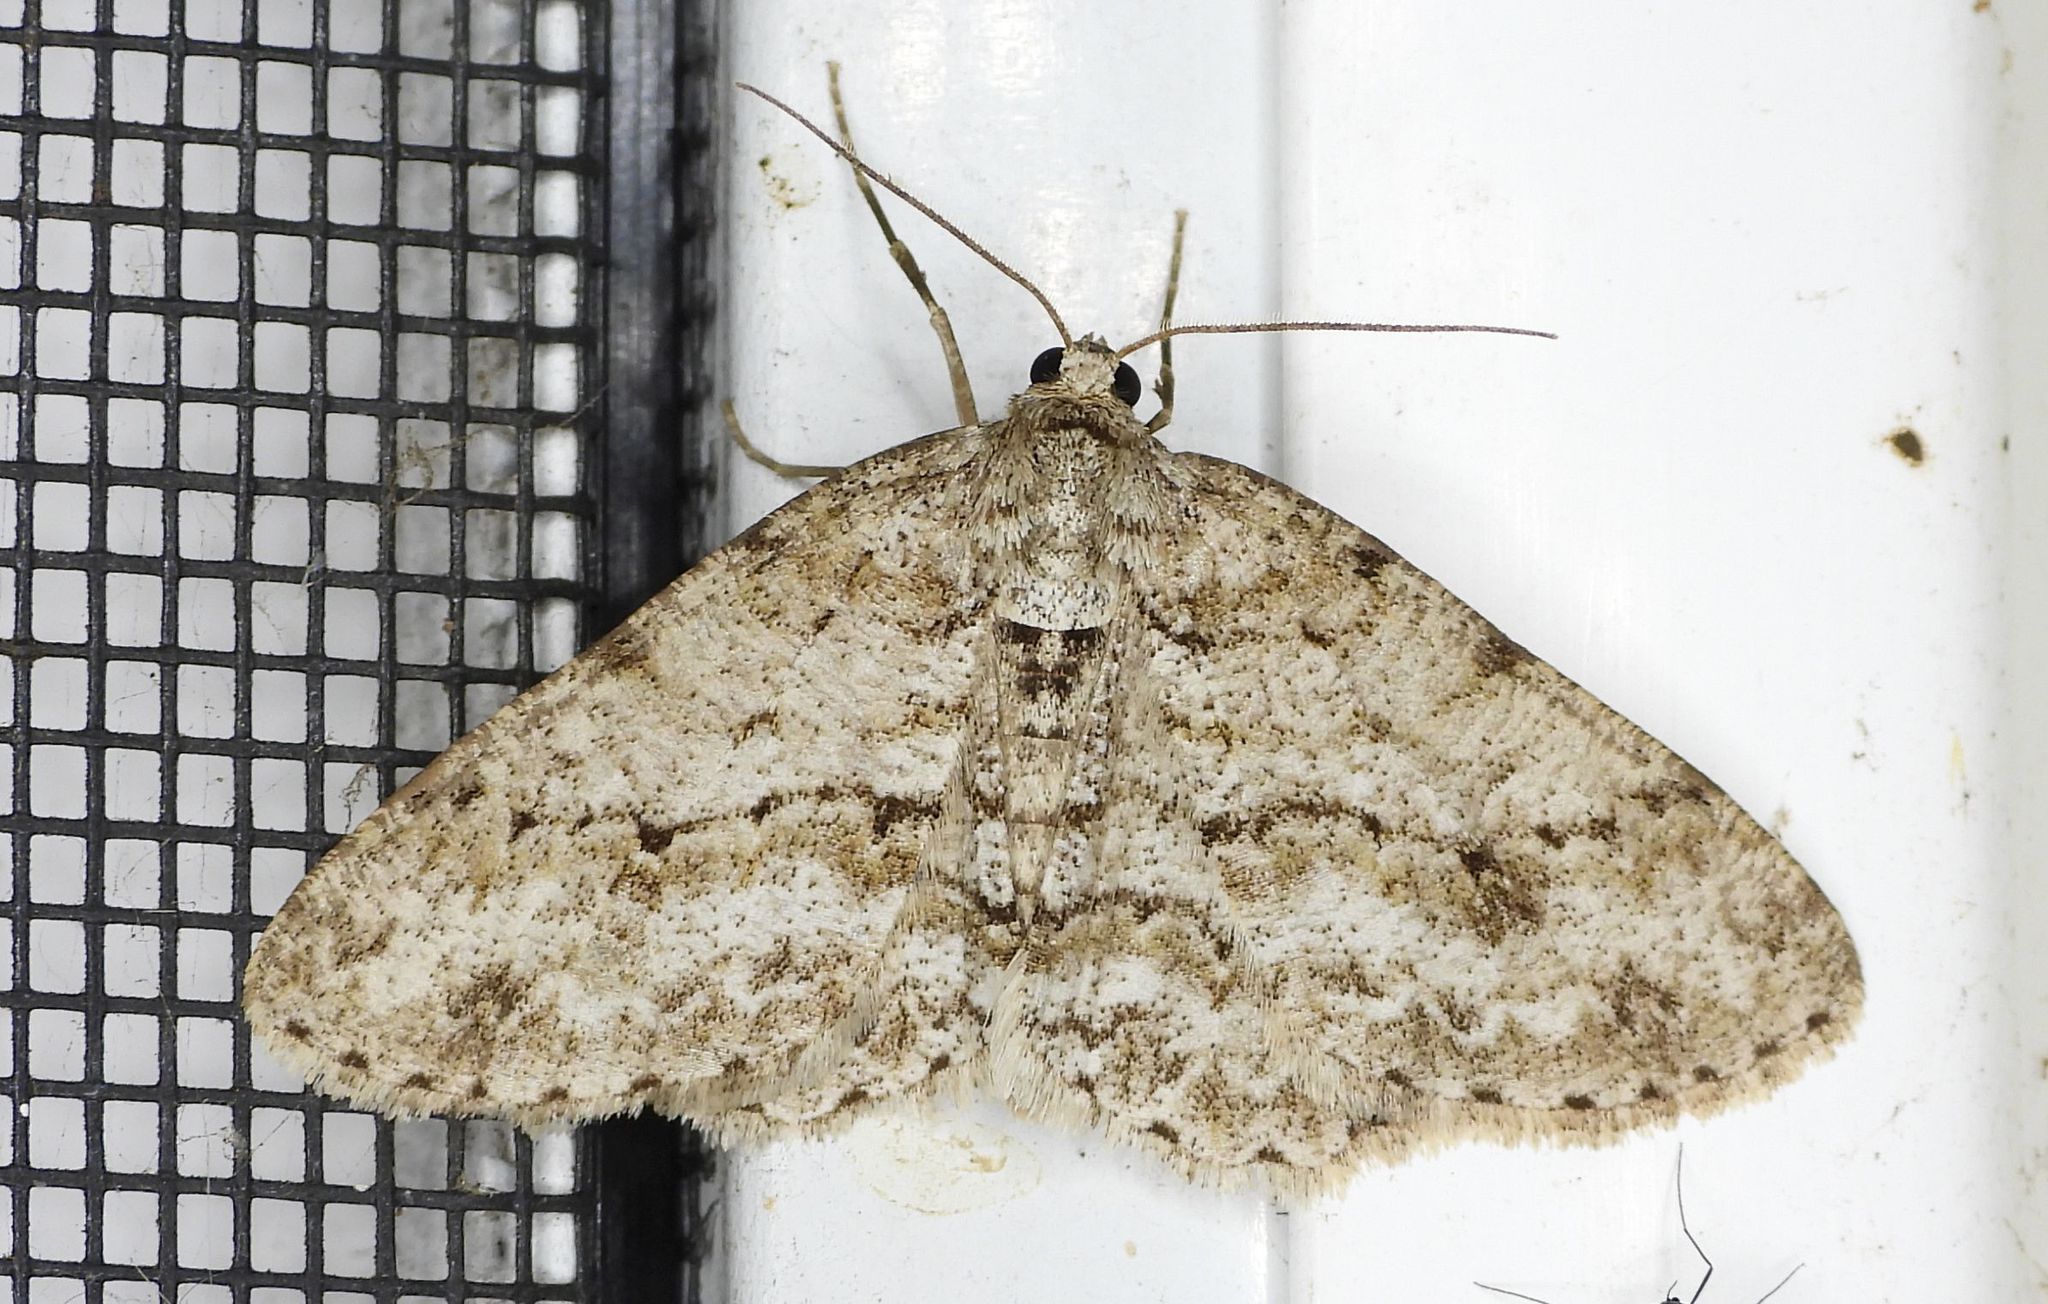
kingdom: Animalia
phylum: Arthropoda
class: Insecta
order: Lepidoptera
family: Geometridae
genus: Ectropis
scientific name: Ectropis crepuscularia
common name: Engrailed
